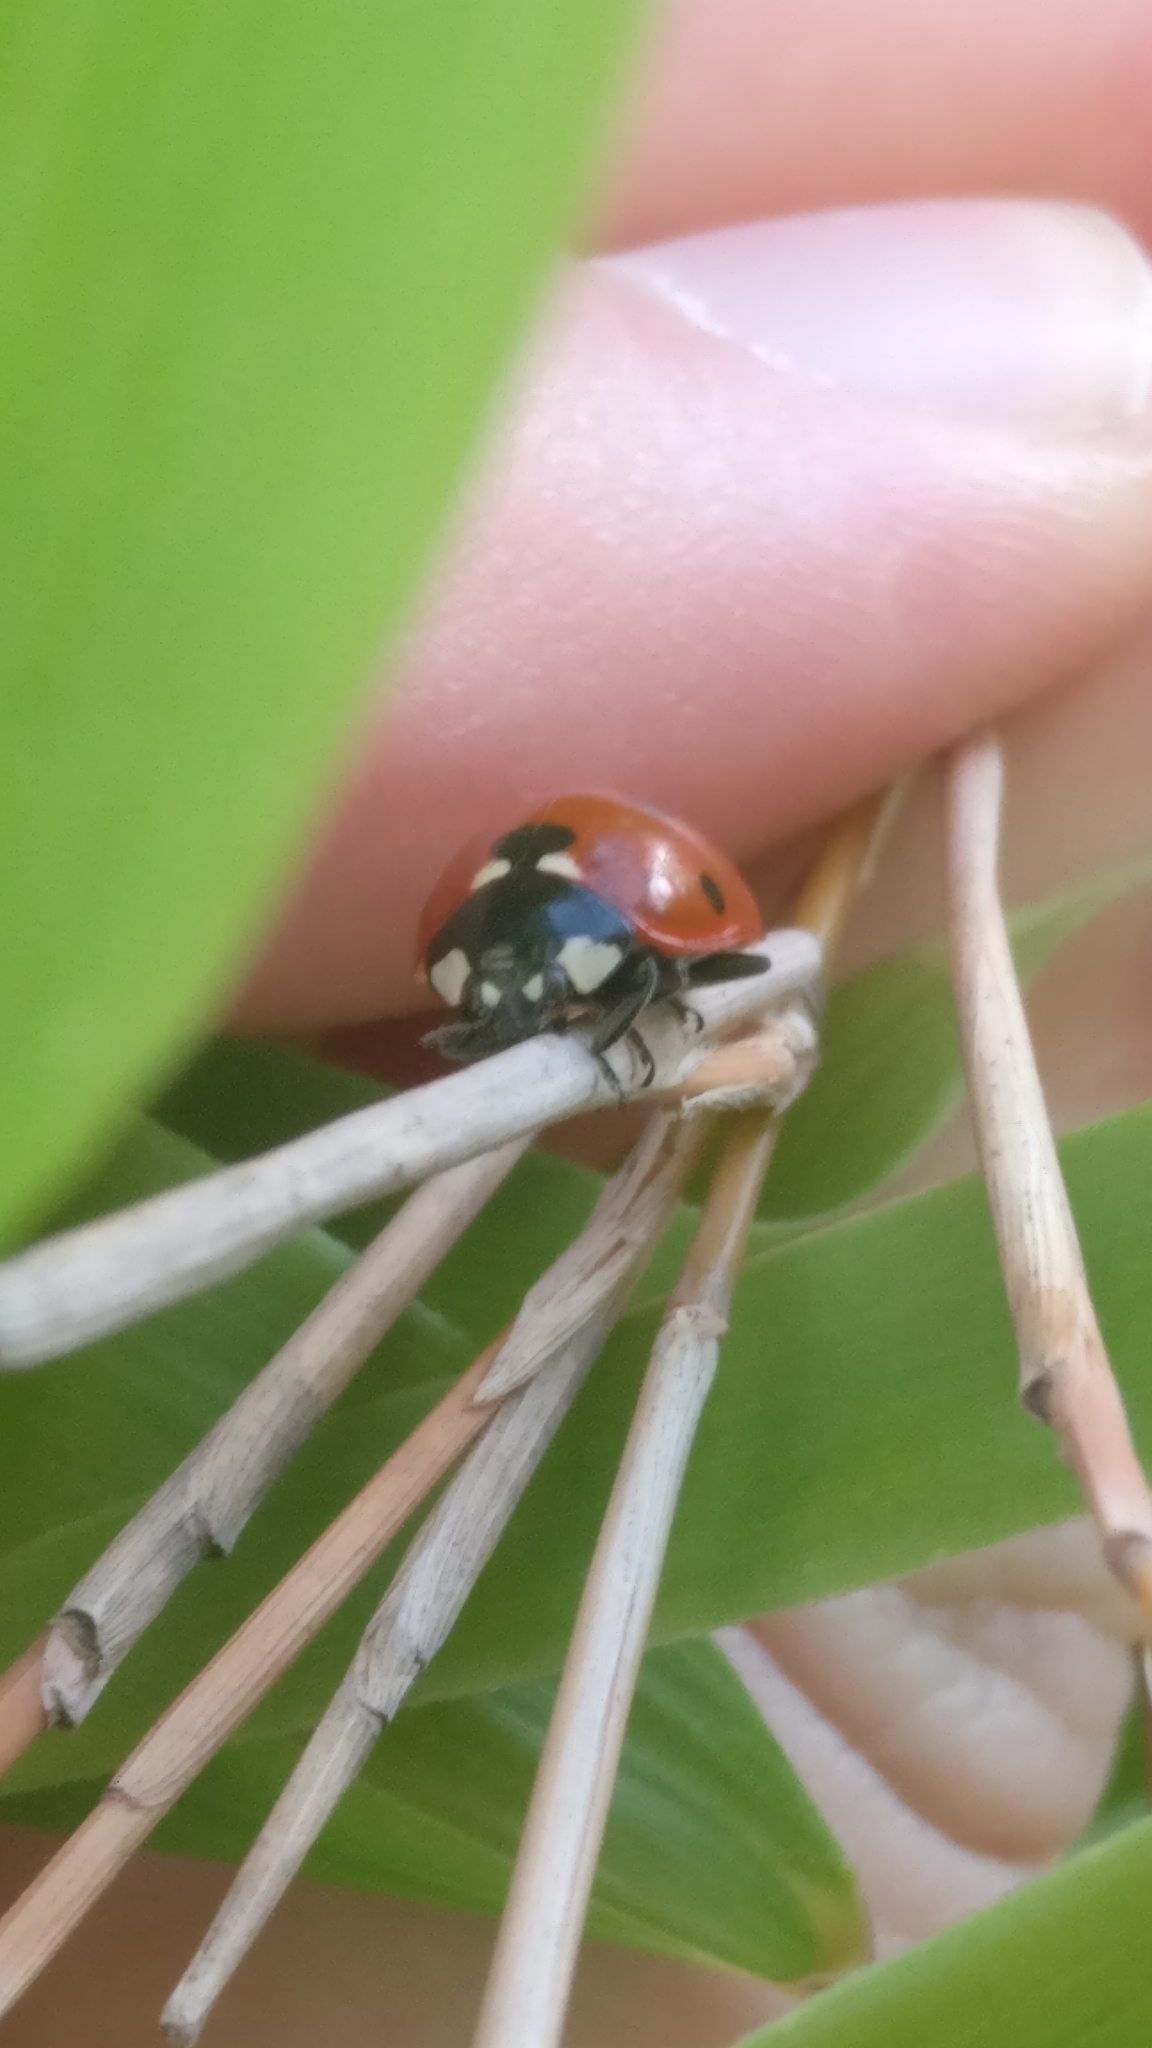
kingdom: Animalia
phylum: Arthropoda
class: Insecta
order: Coleoptera
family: Coccinellidae
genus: Coccinella
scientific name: Coccinella septempunctata
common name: Sevenspotted lady beetle
